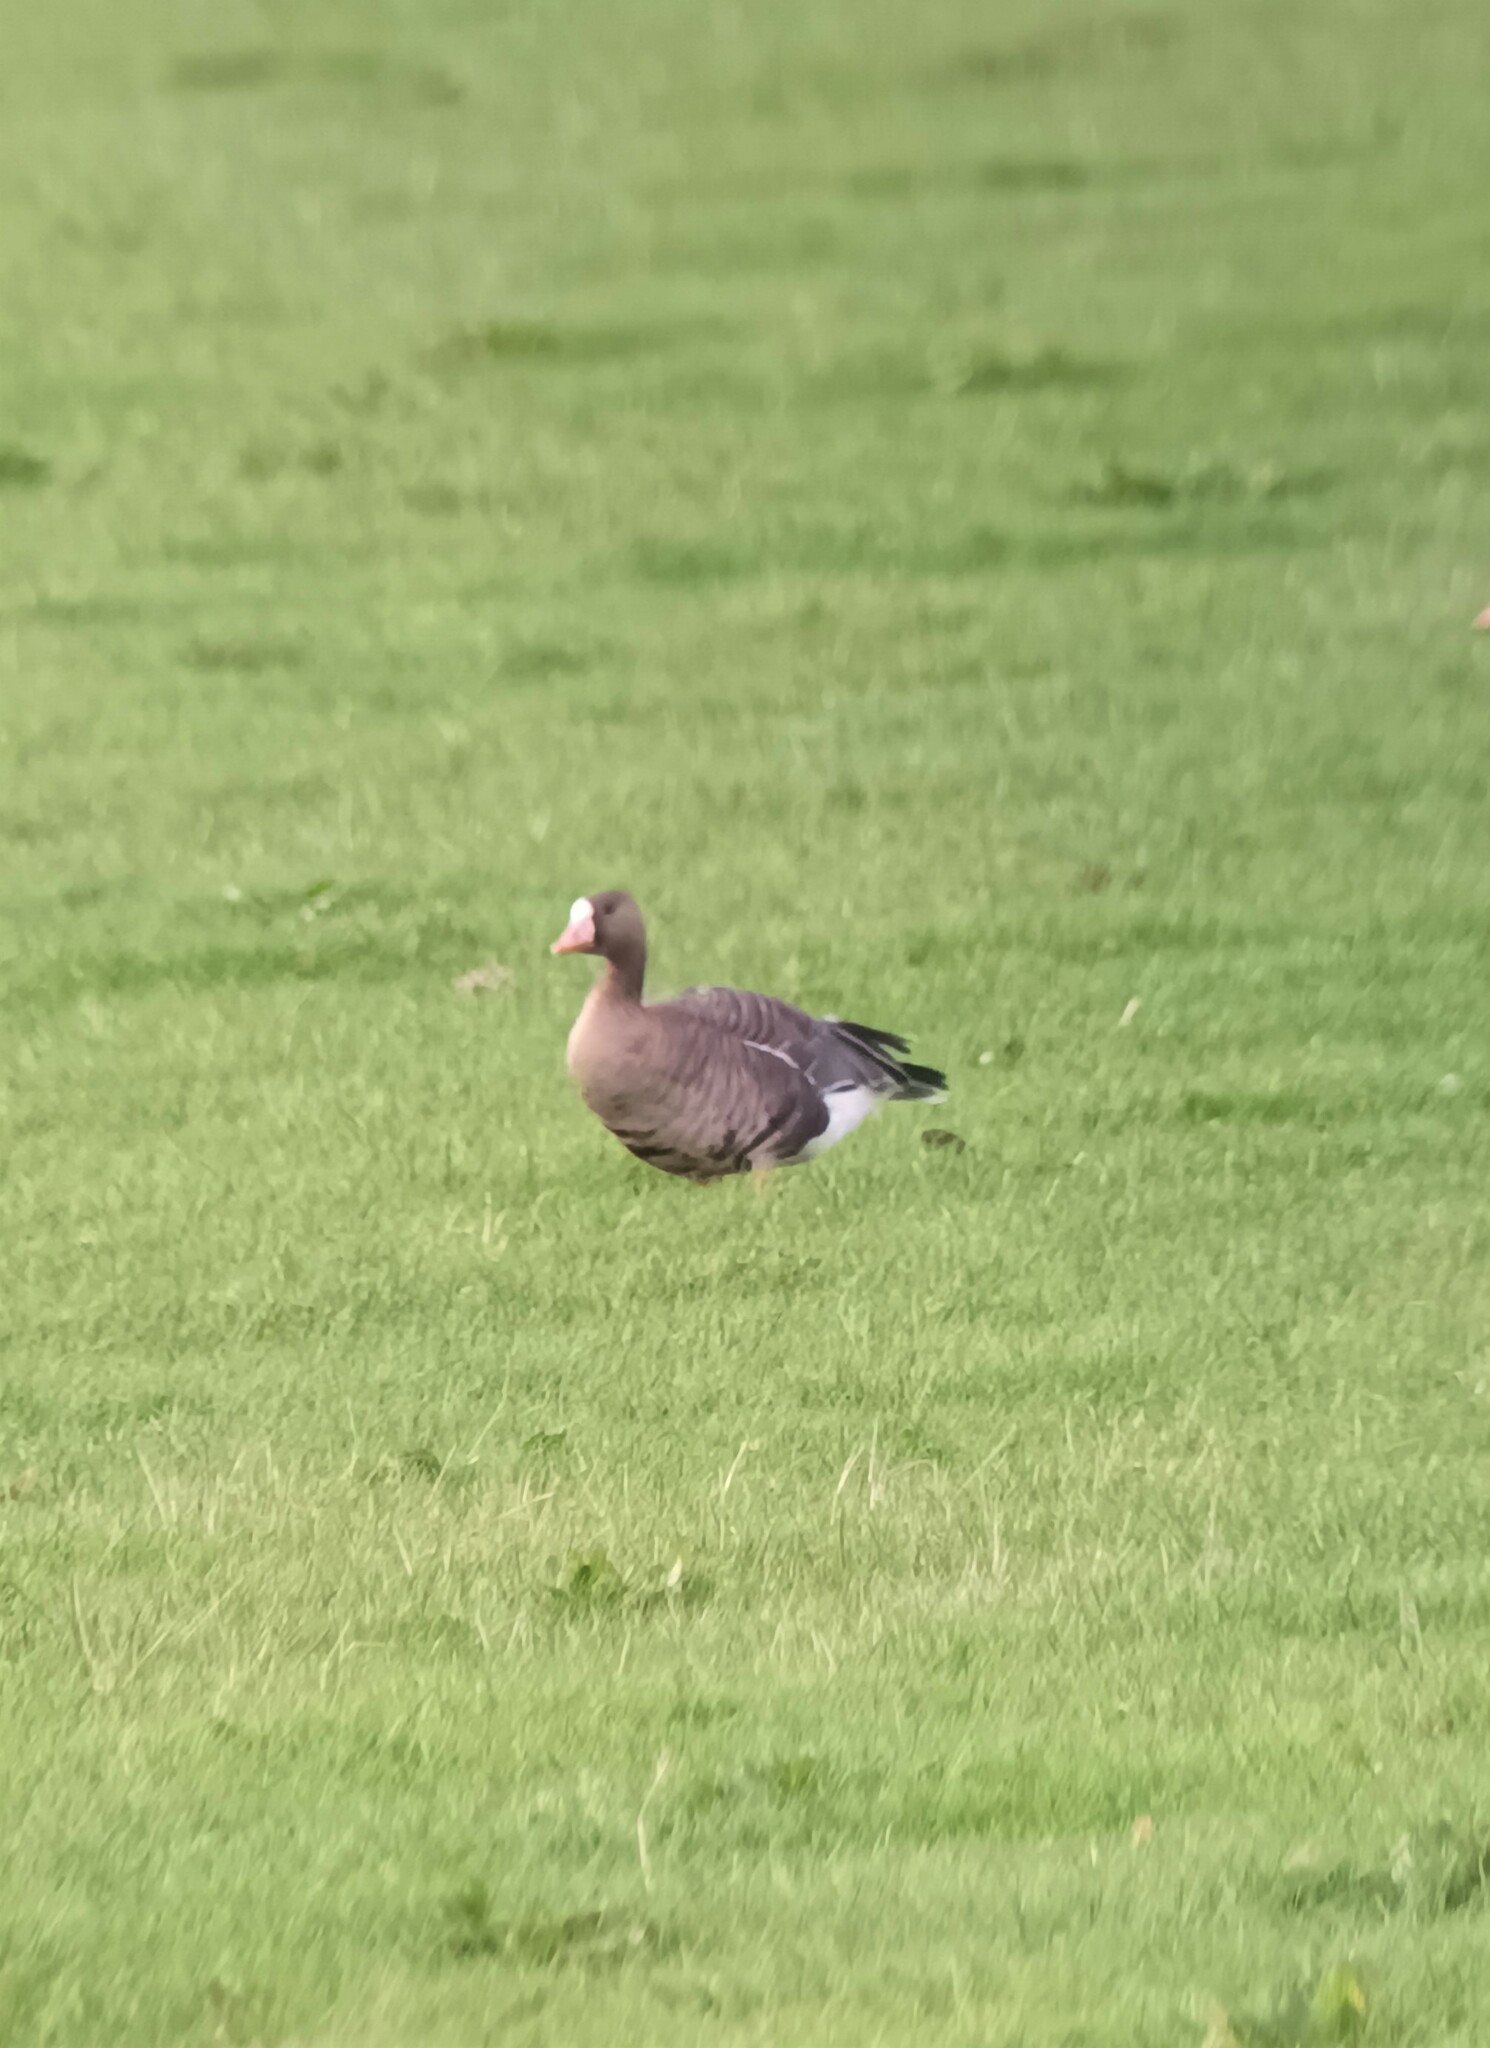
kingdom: Animalia
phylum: Chordata
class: Aves
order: Anseriformes
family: Anatidae
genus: Anser
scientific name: Anser albifrons
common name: Greater white-fronted goose
